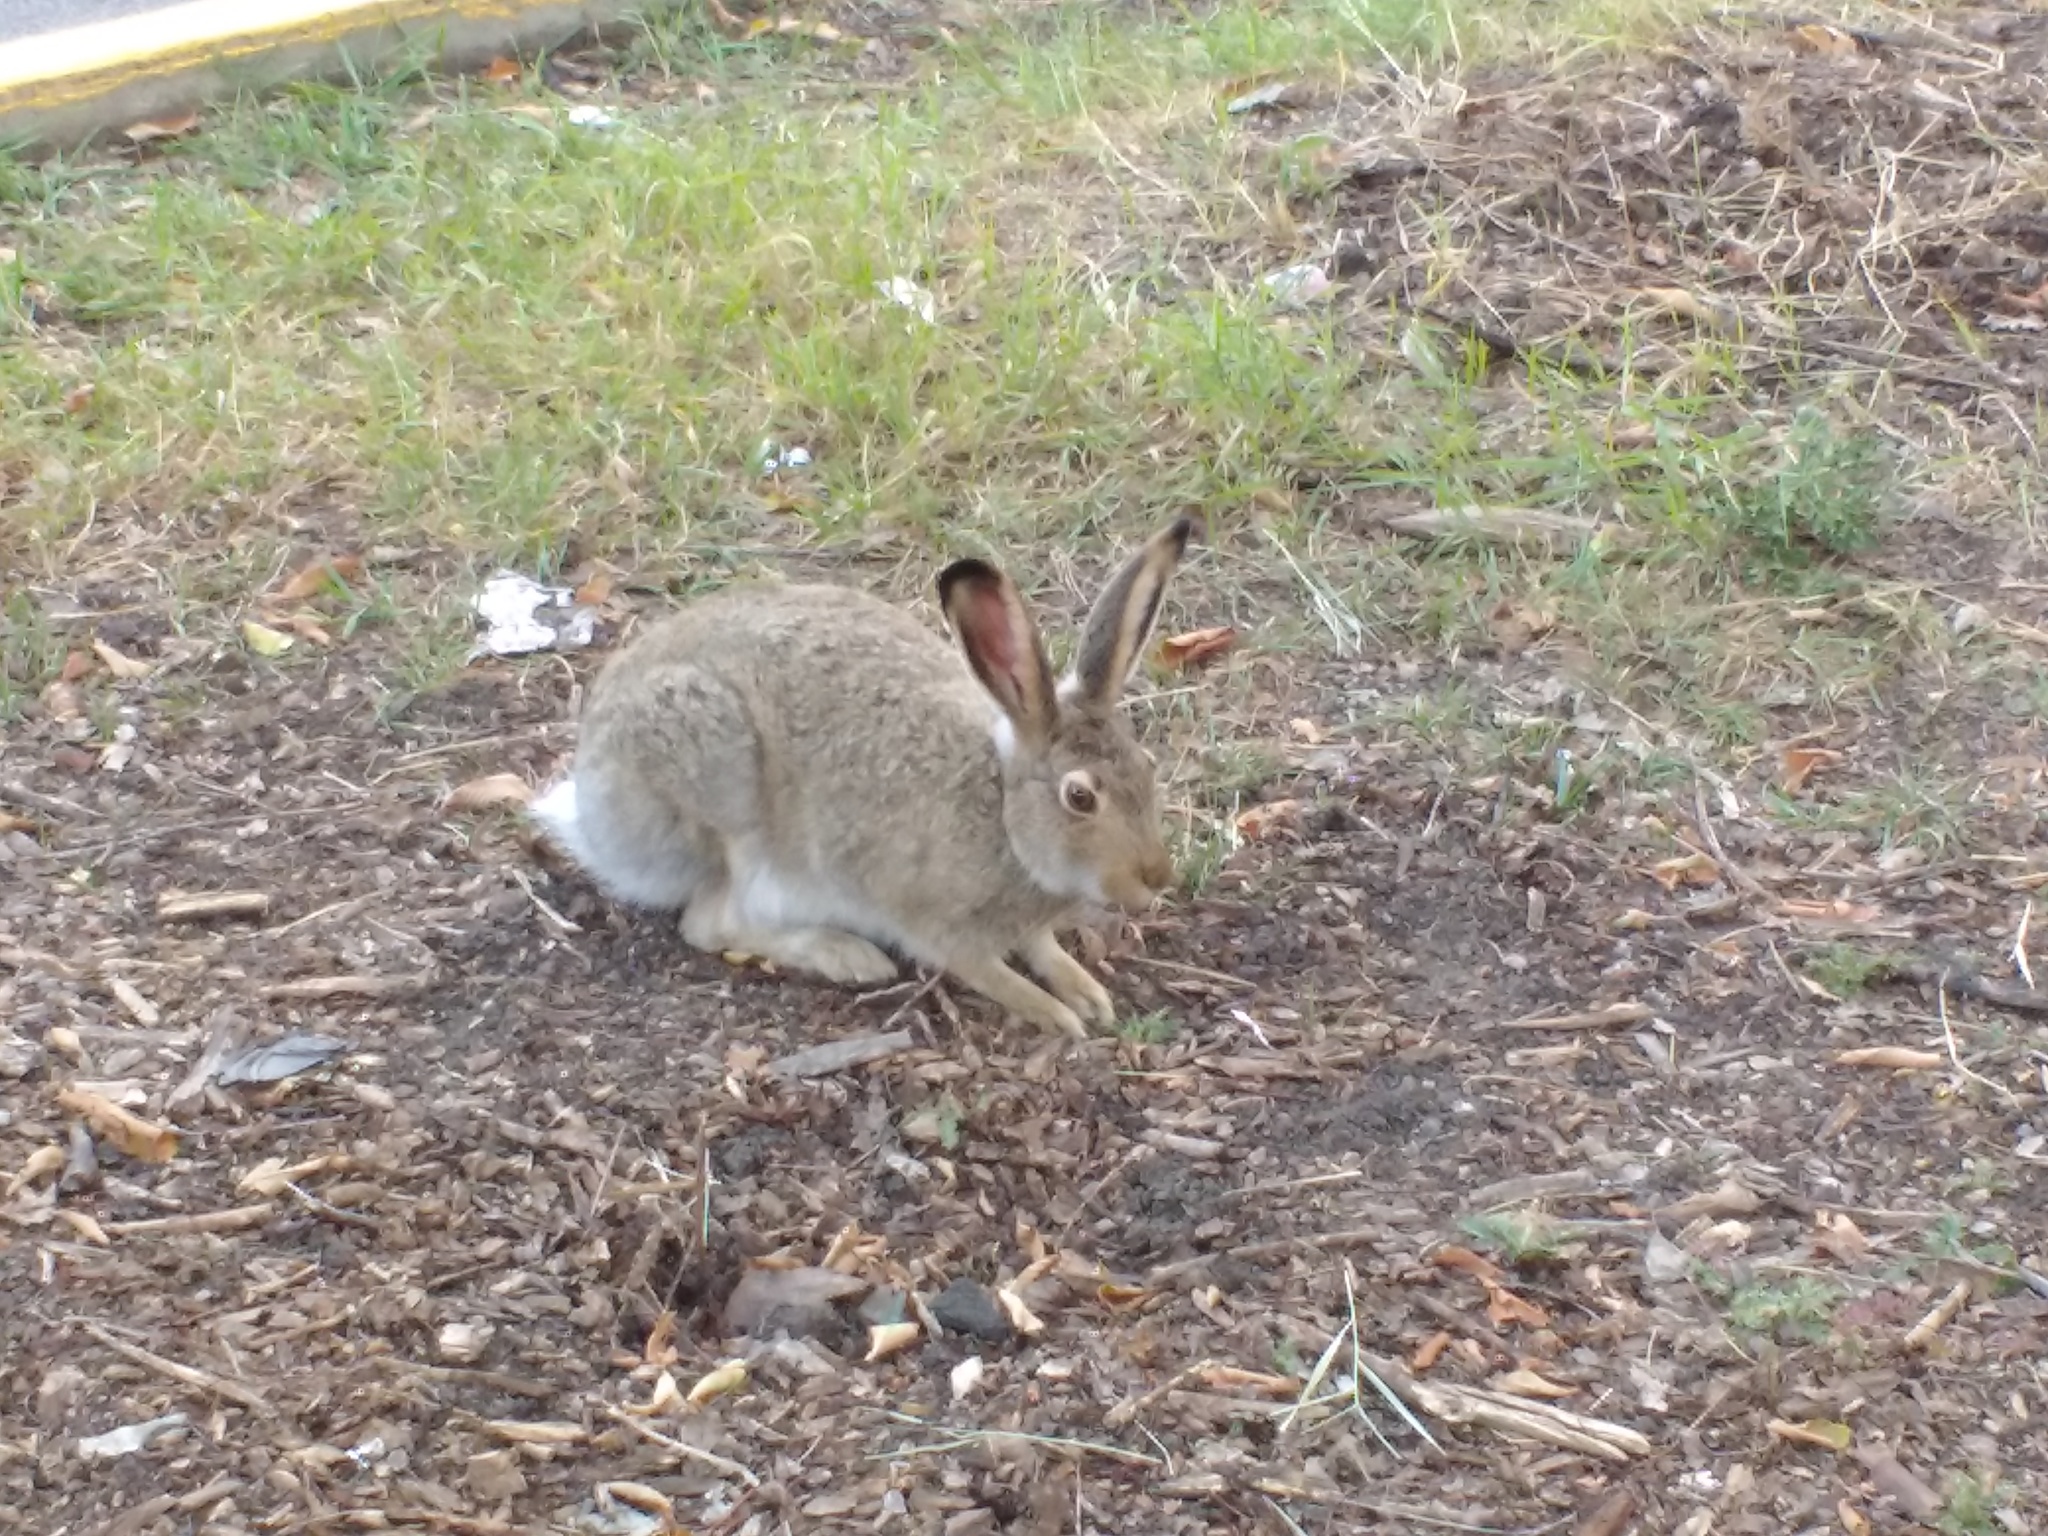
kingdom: Animalia
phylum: Chordata
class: Mammalia
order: Lagomorpha
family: Leporidae
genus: Lepus
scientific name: Lepus townsendii
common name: White-tailed jackrabbit
